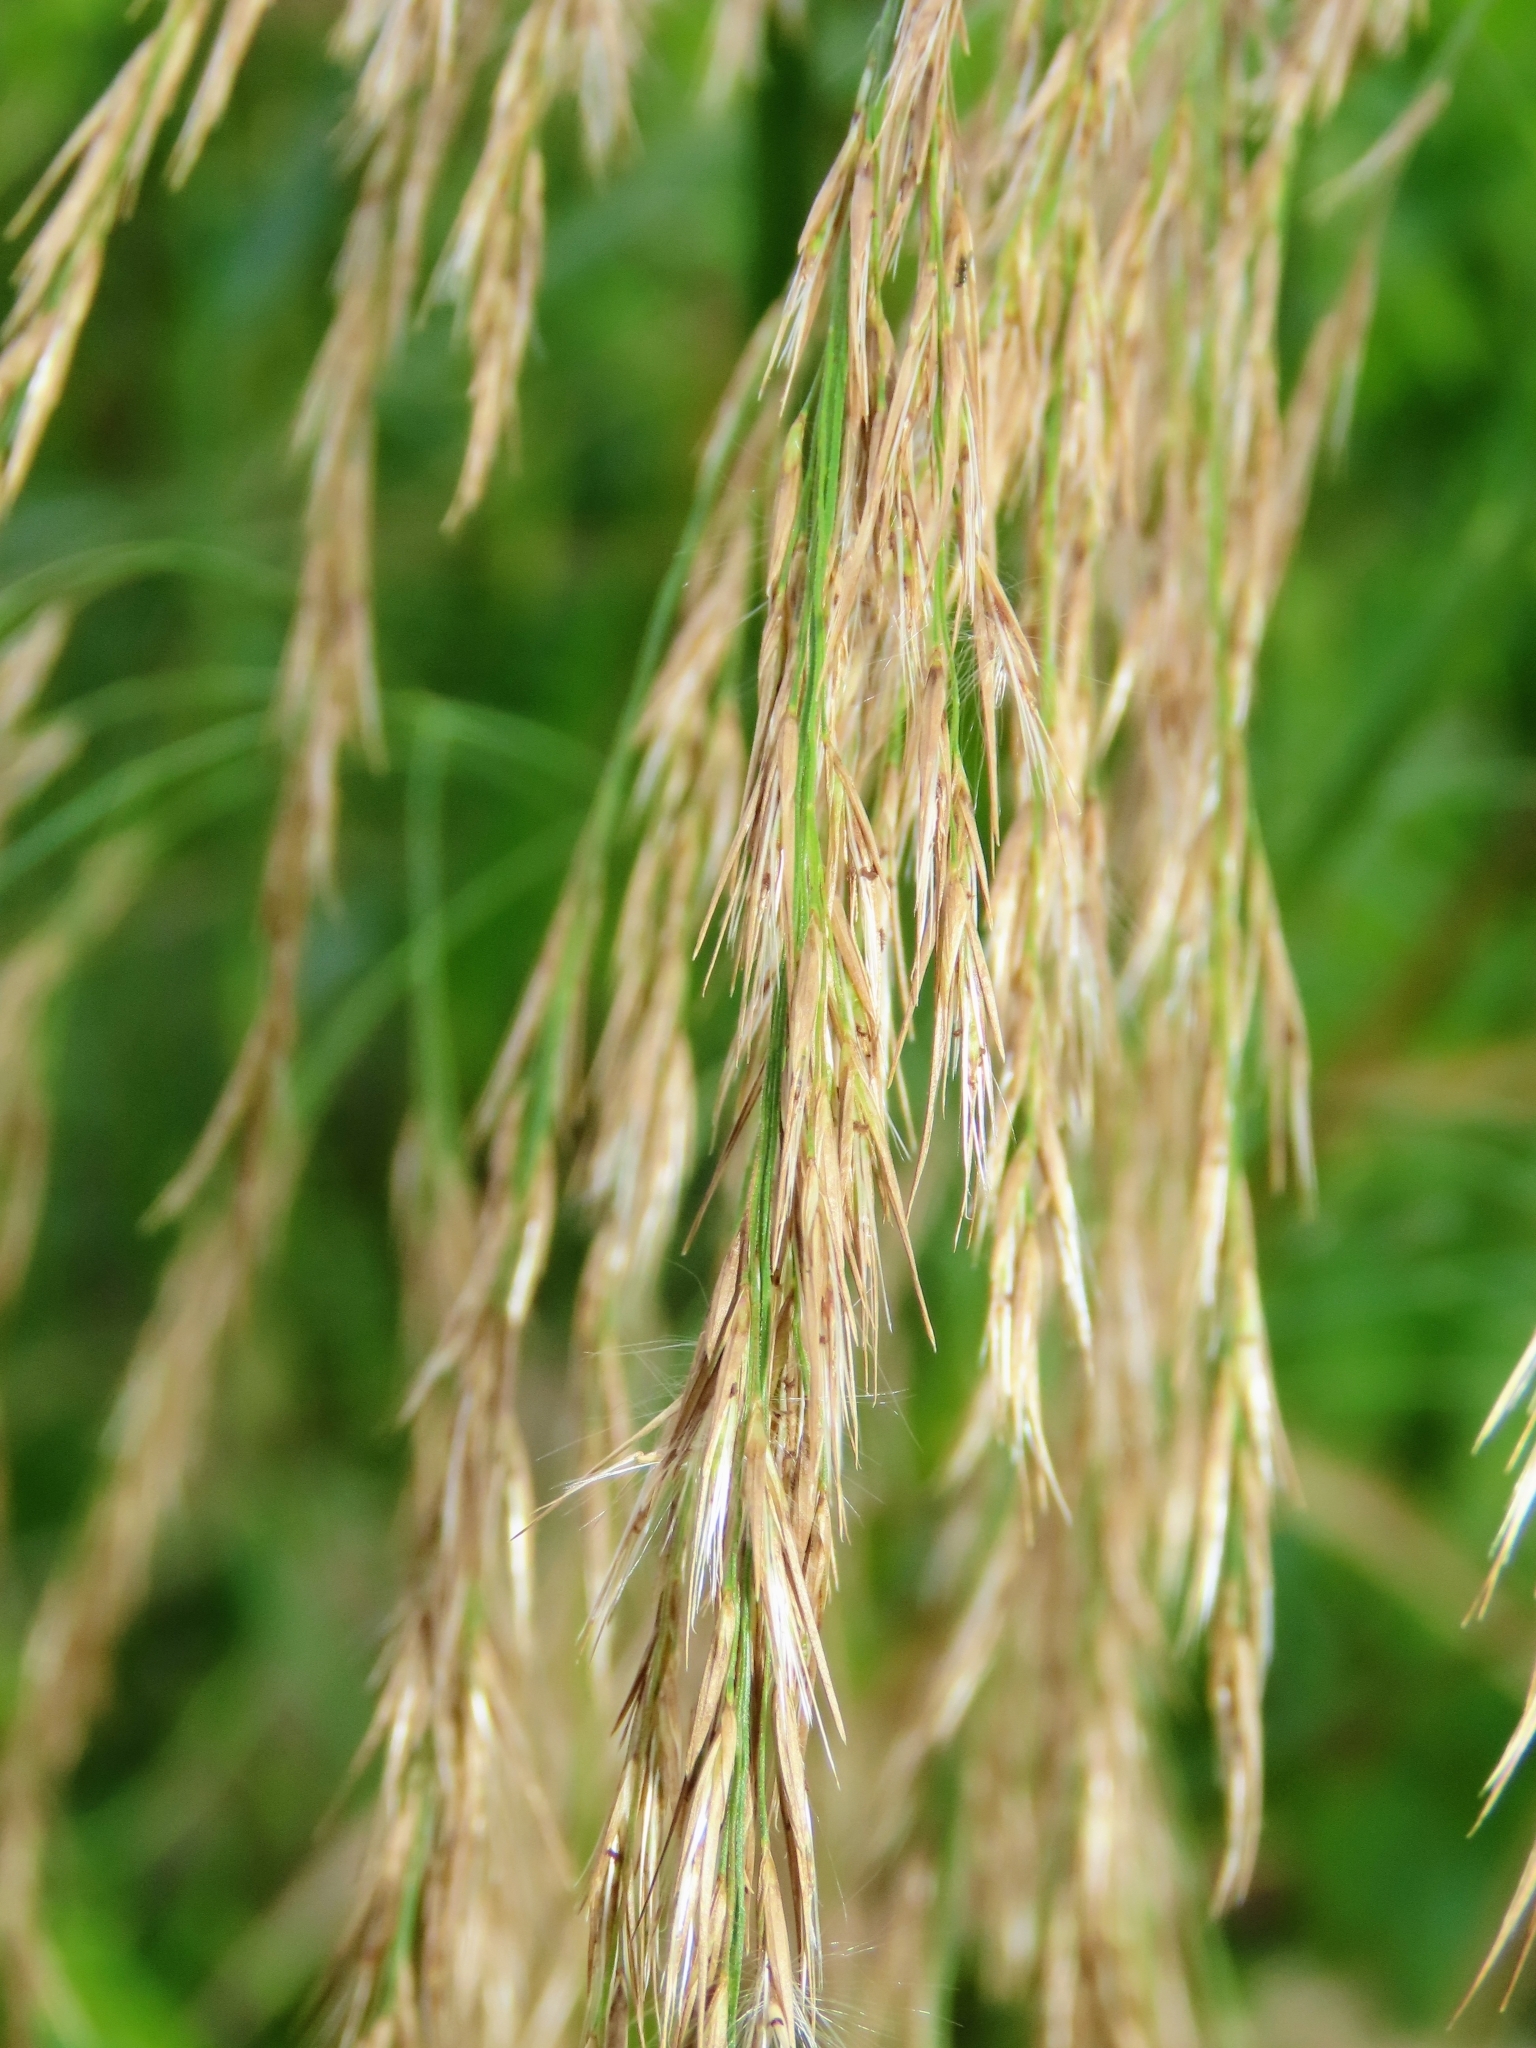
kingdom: Plantae
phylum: Tracheophyta
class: Liliopsida
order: Poales
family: Poaceae
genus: Phragmites
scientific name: Phragmites karka
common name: Tropical reed
